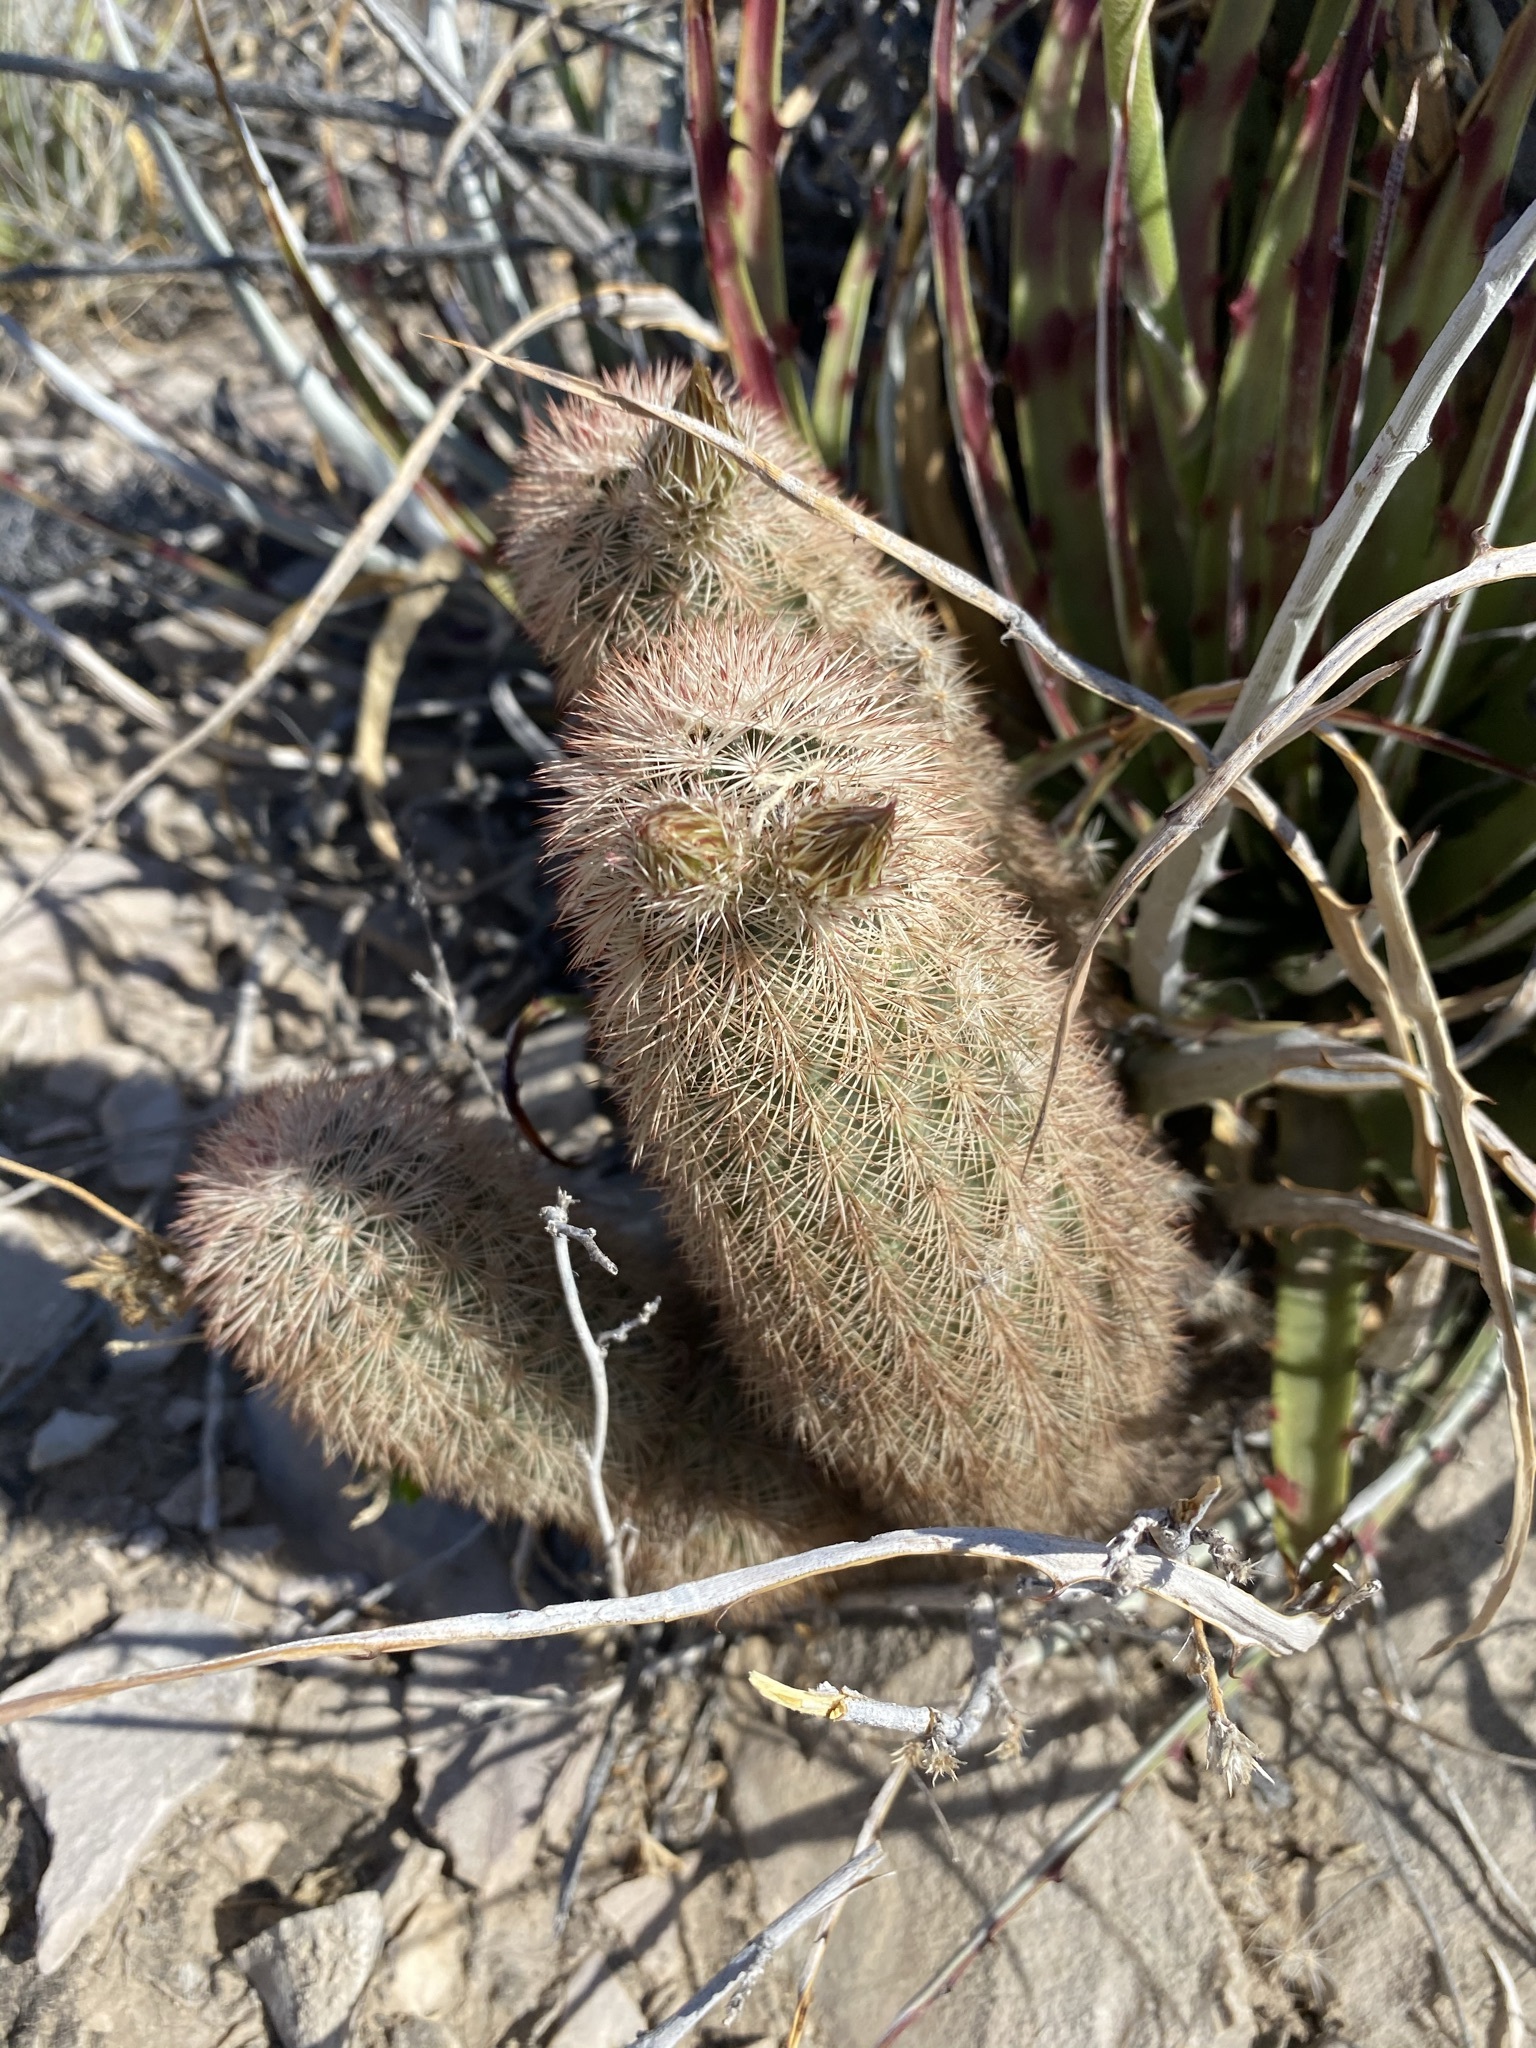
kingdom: Plantae
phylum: Tracheophyta
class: Magnoliopsida
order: Caryophyllales
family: Cactaceae
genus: Echinocereus
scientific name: Echinocereus dasyacanthus
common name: Spiny hedgehog cactus
